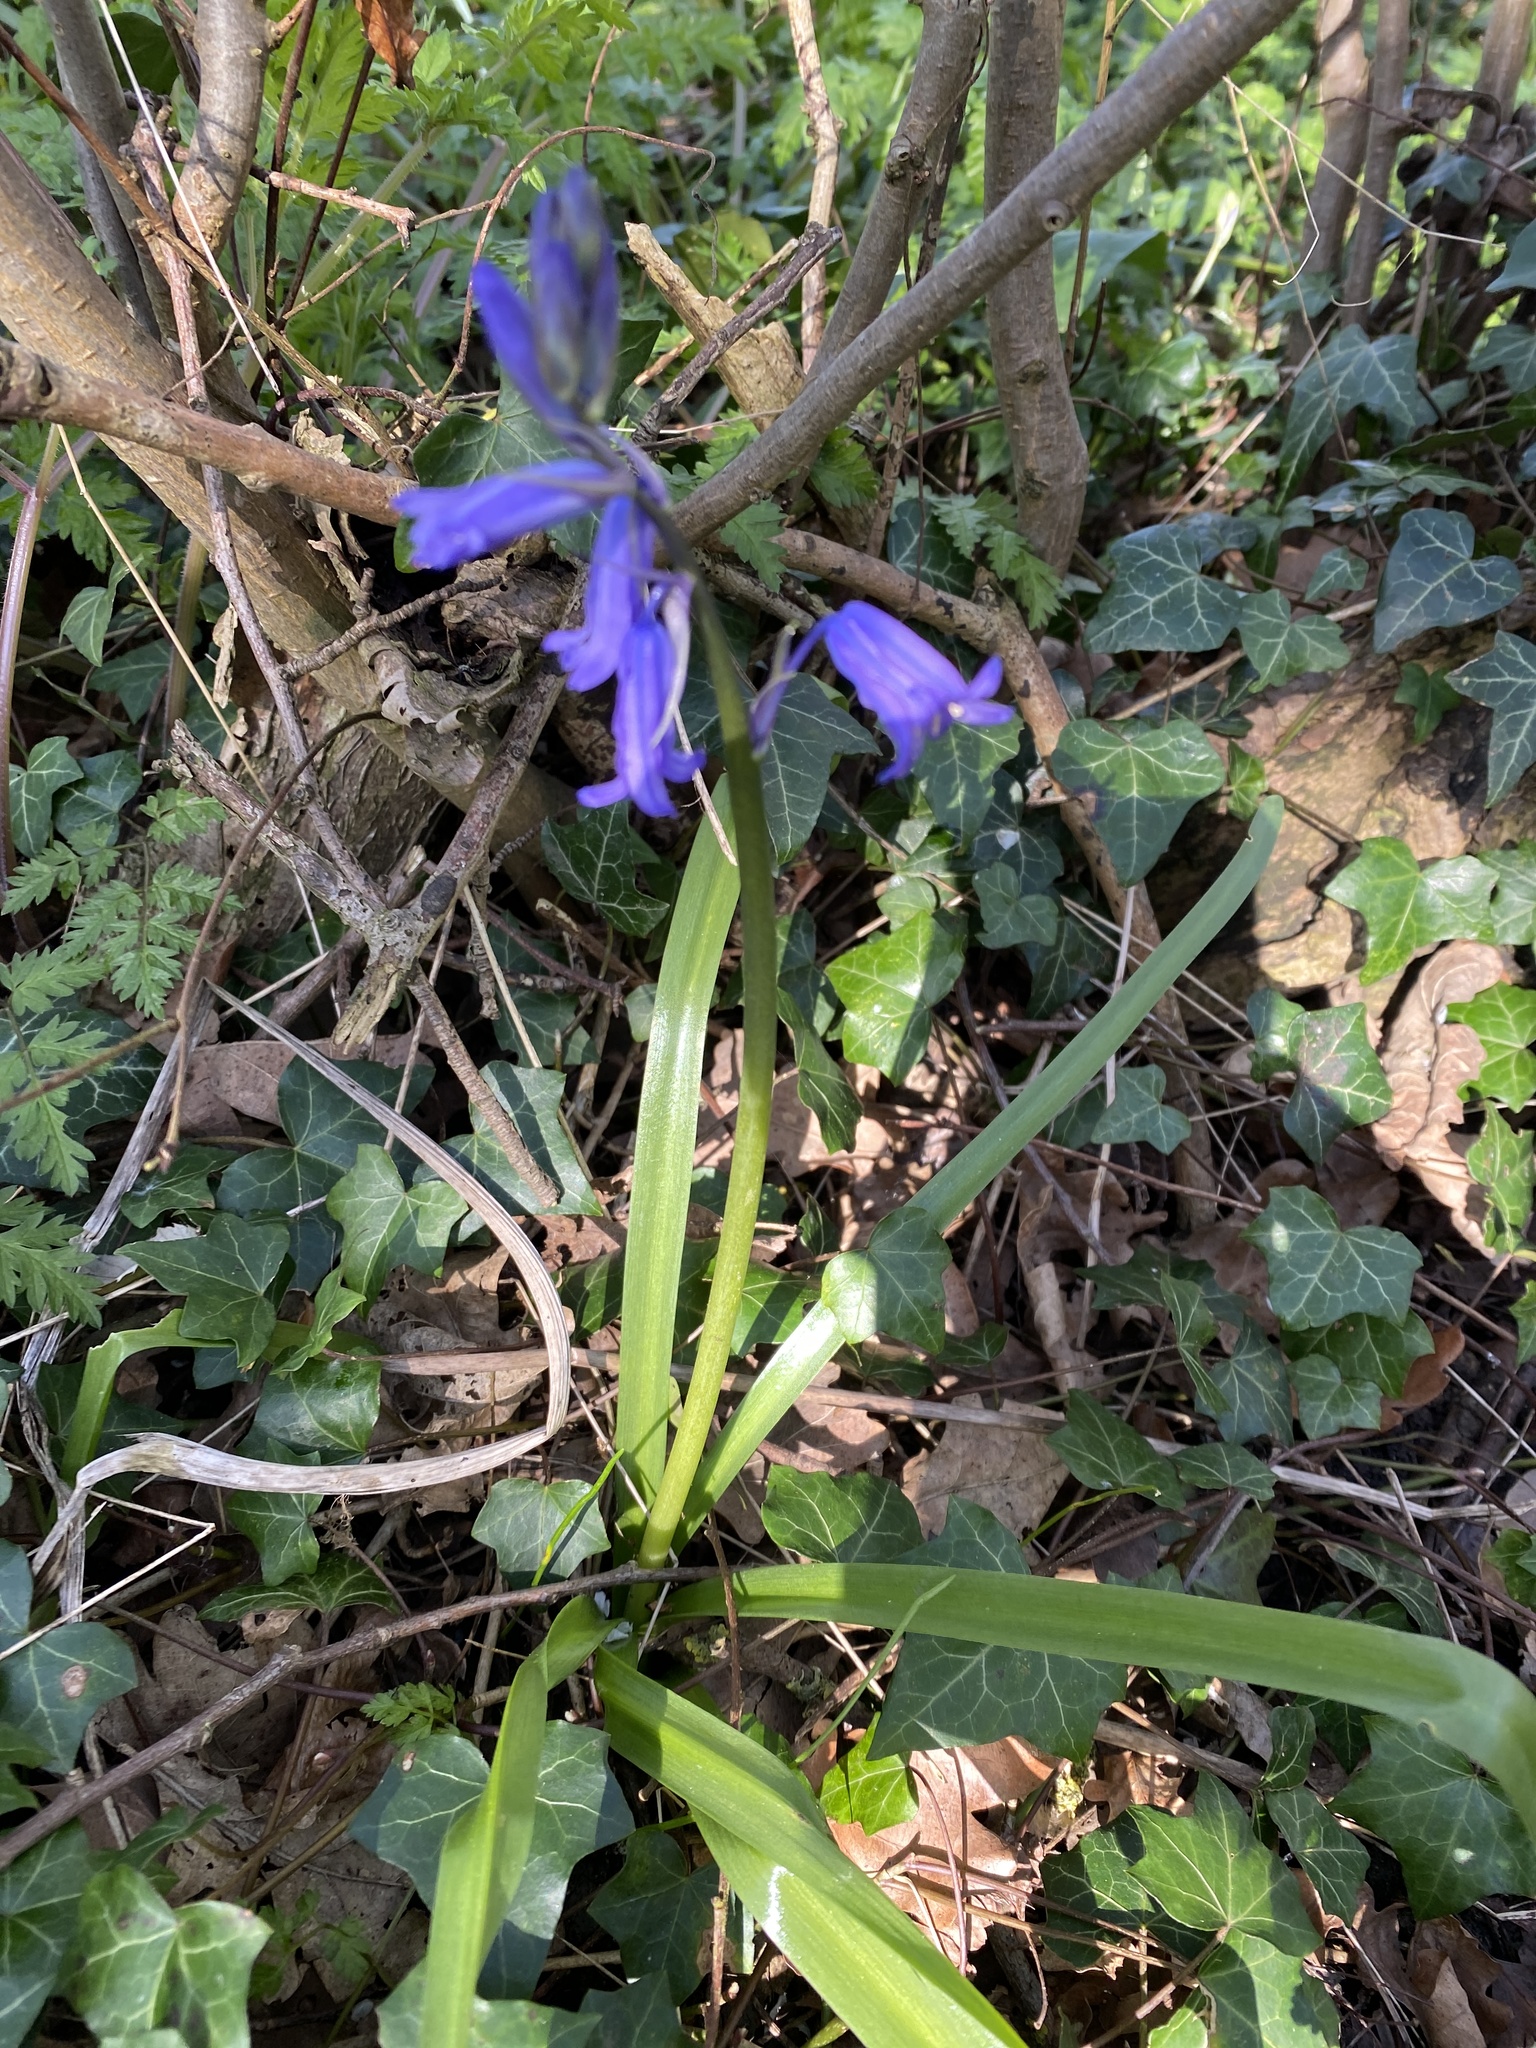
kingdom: Plantae
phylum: Tracheophyta
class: Liliopsida
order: Asparagales
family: Asparagaceae
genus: Hyacinthoides
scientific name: Hyacinthoides non-scripta
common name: Bluebell
